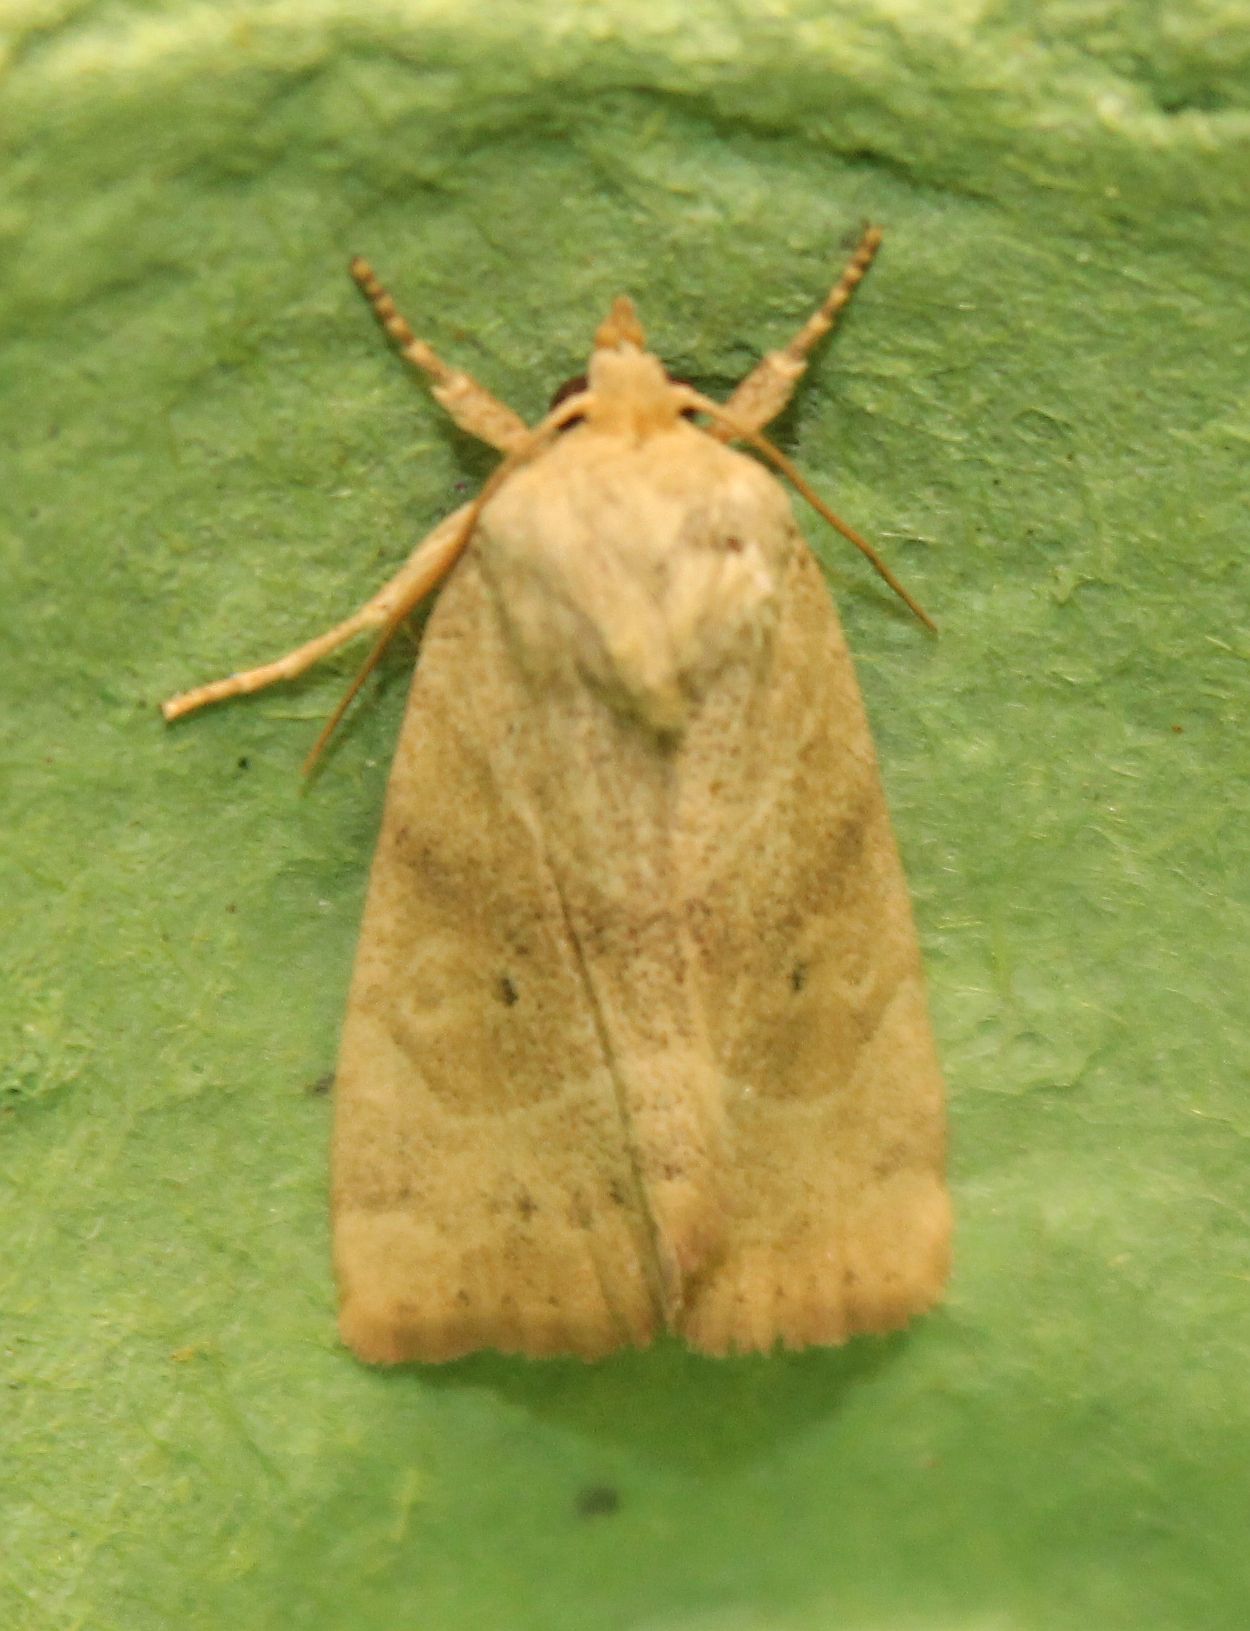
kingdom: Animalia
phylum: Arthropoda
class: Insecta
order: Lepidoptera
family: Noctuidae
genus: Cosmia
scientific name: Cosmia trapezina
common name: Dun-bar
